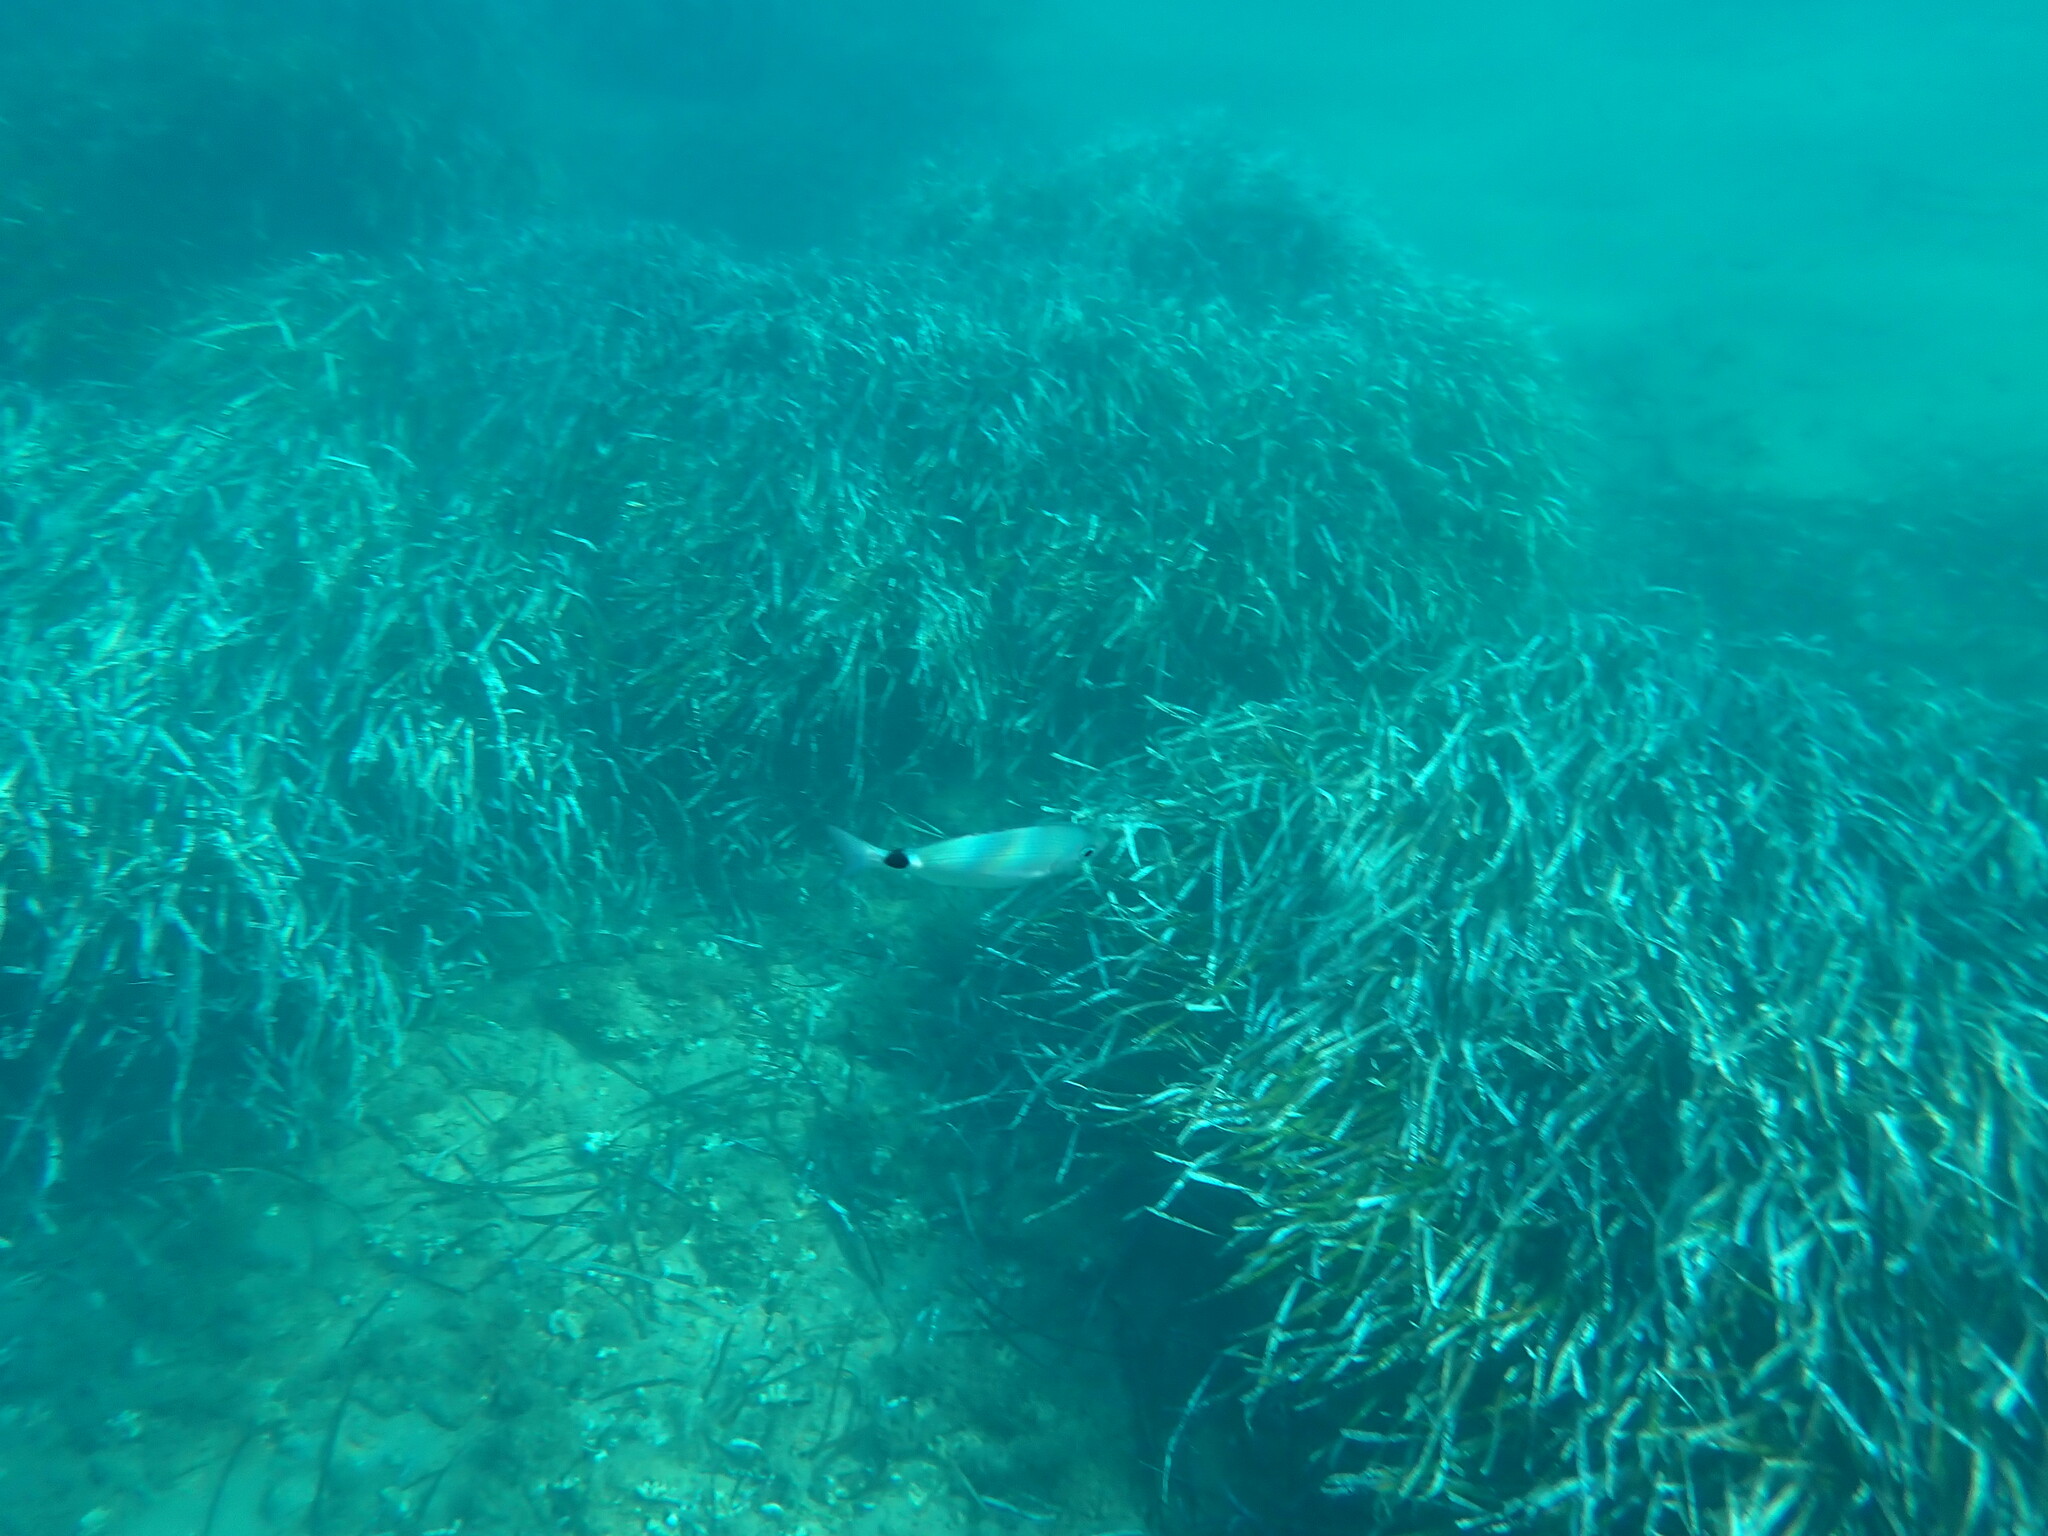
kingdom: Animalia
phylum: Chordata
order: Perciformes
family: Sparidae
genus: Oblada
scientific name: Oblada melanura
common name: Saddled seabream
